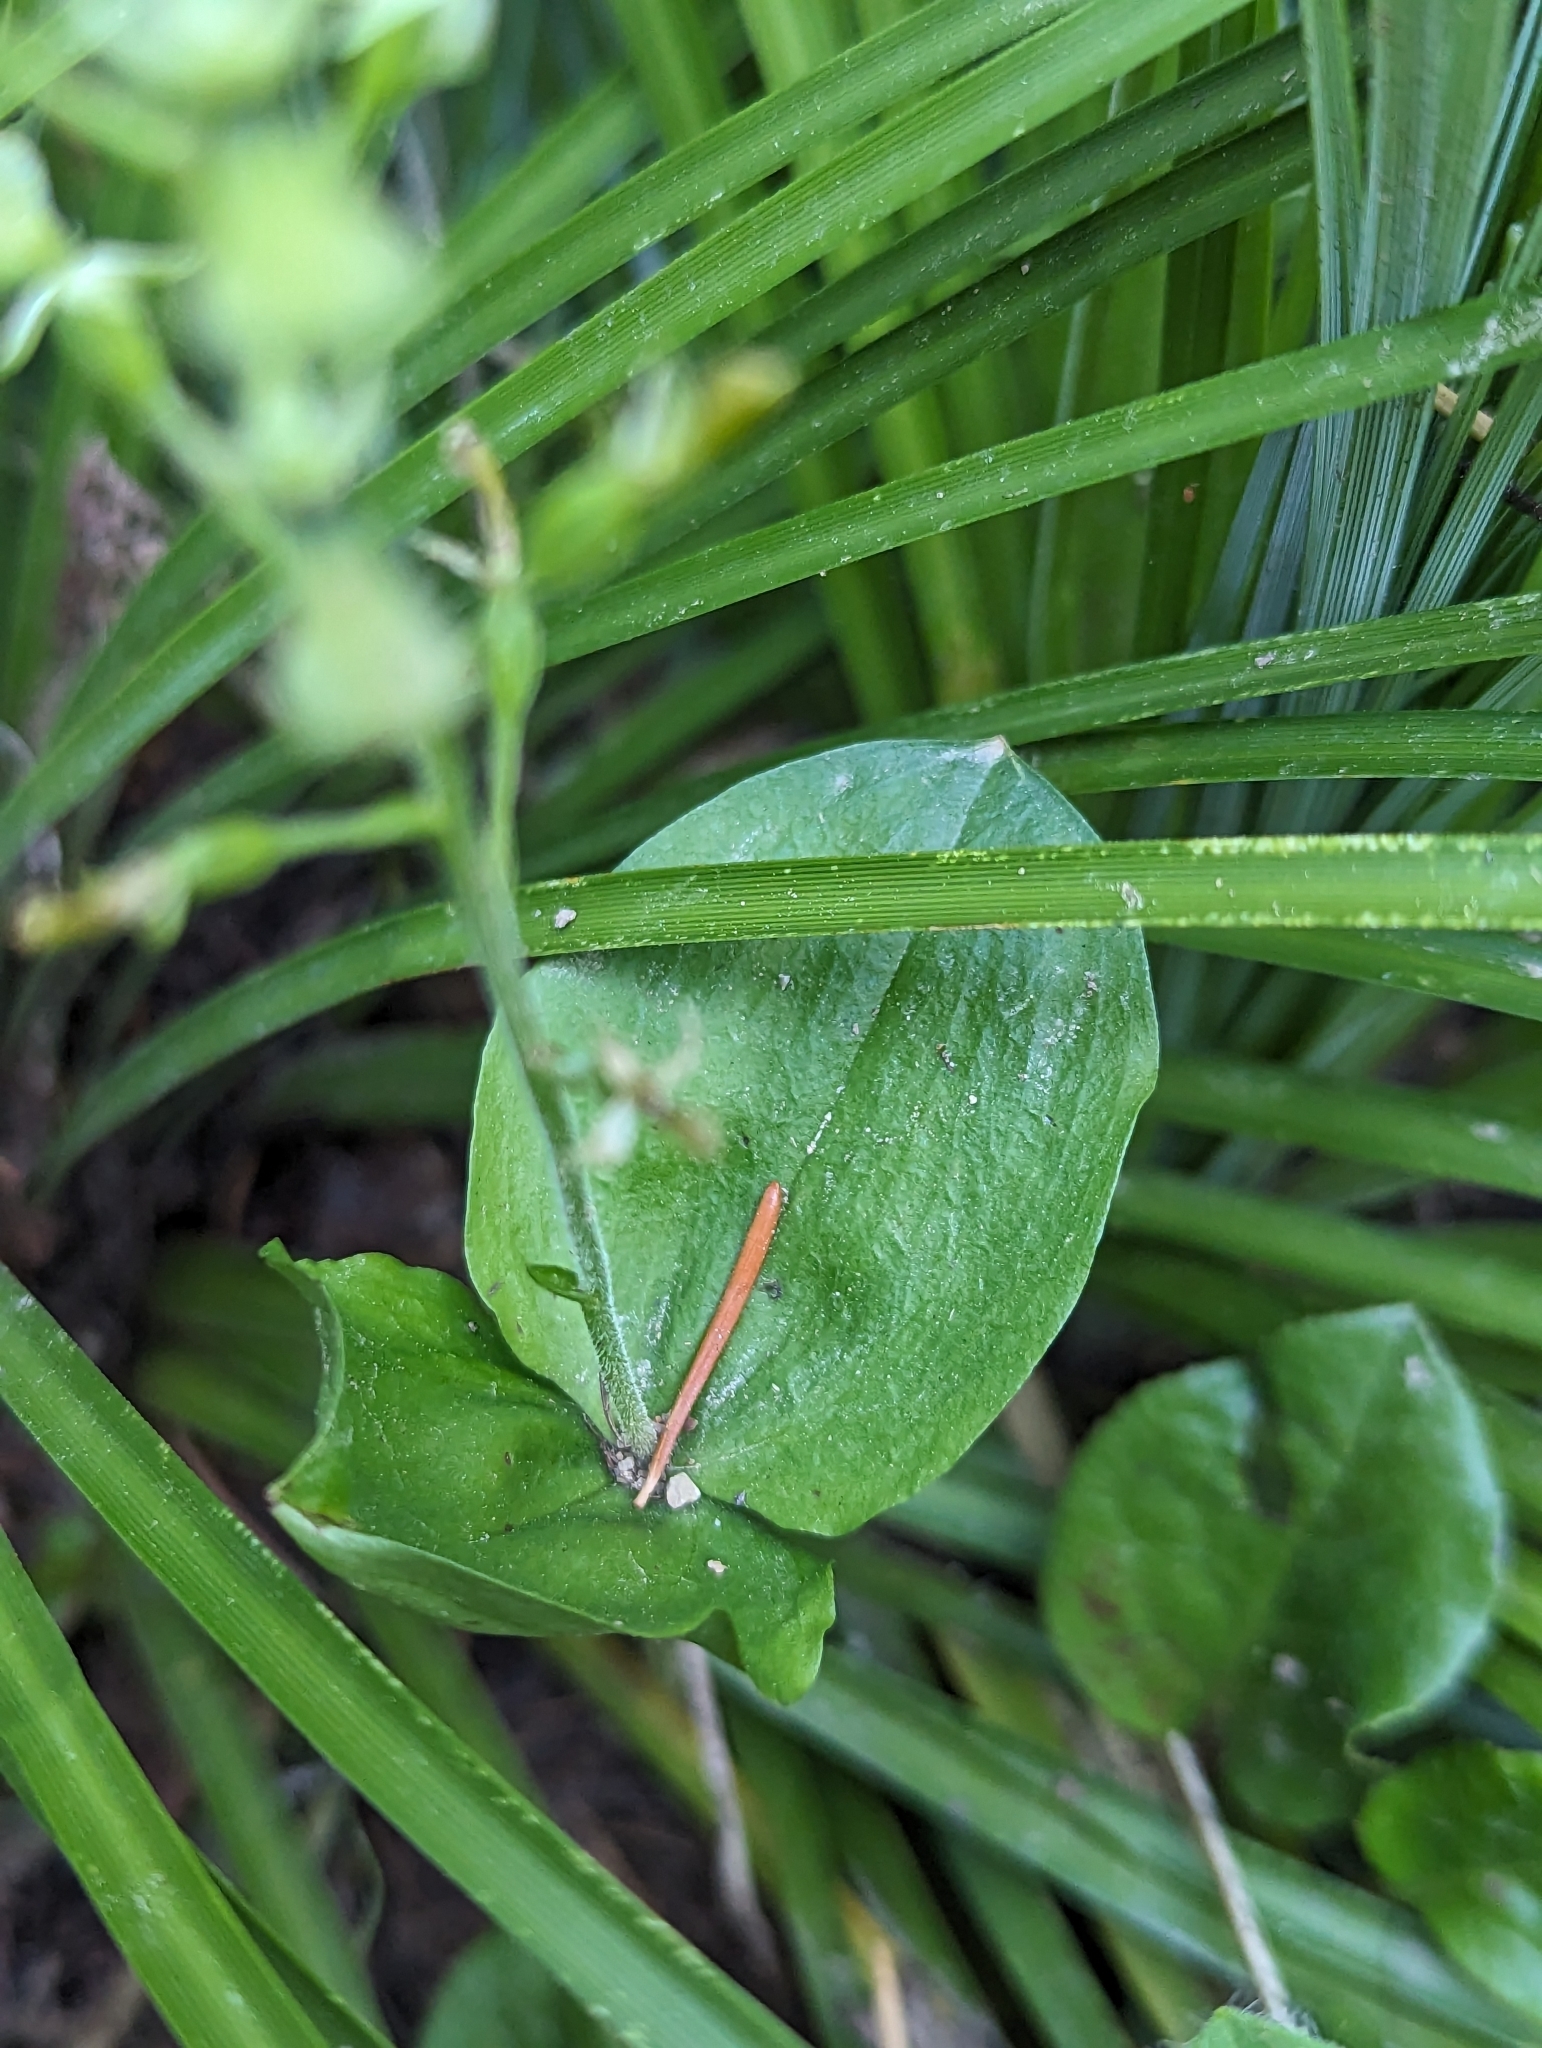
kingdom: Plantae
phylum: Tracheophyta
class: Liliopsida
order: Asparagales
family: Orchidaceae
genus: Neottia
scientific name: Neottia banksiana
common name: Northwestern twayblade
